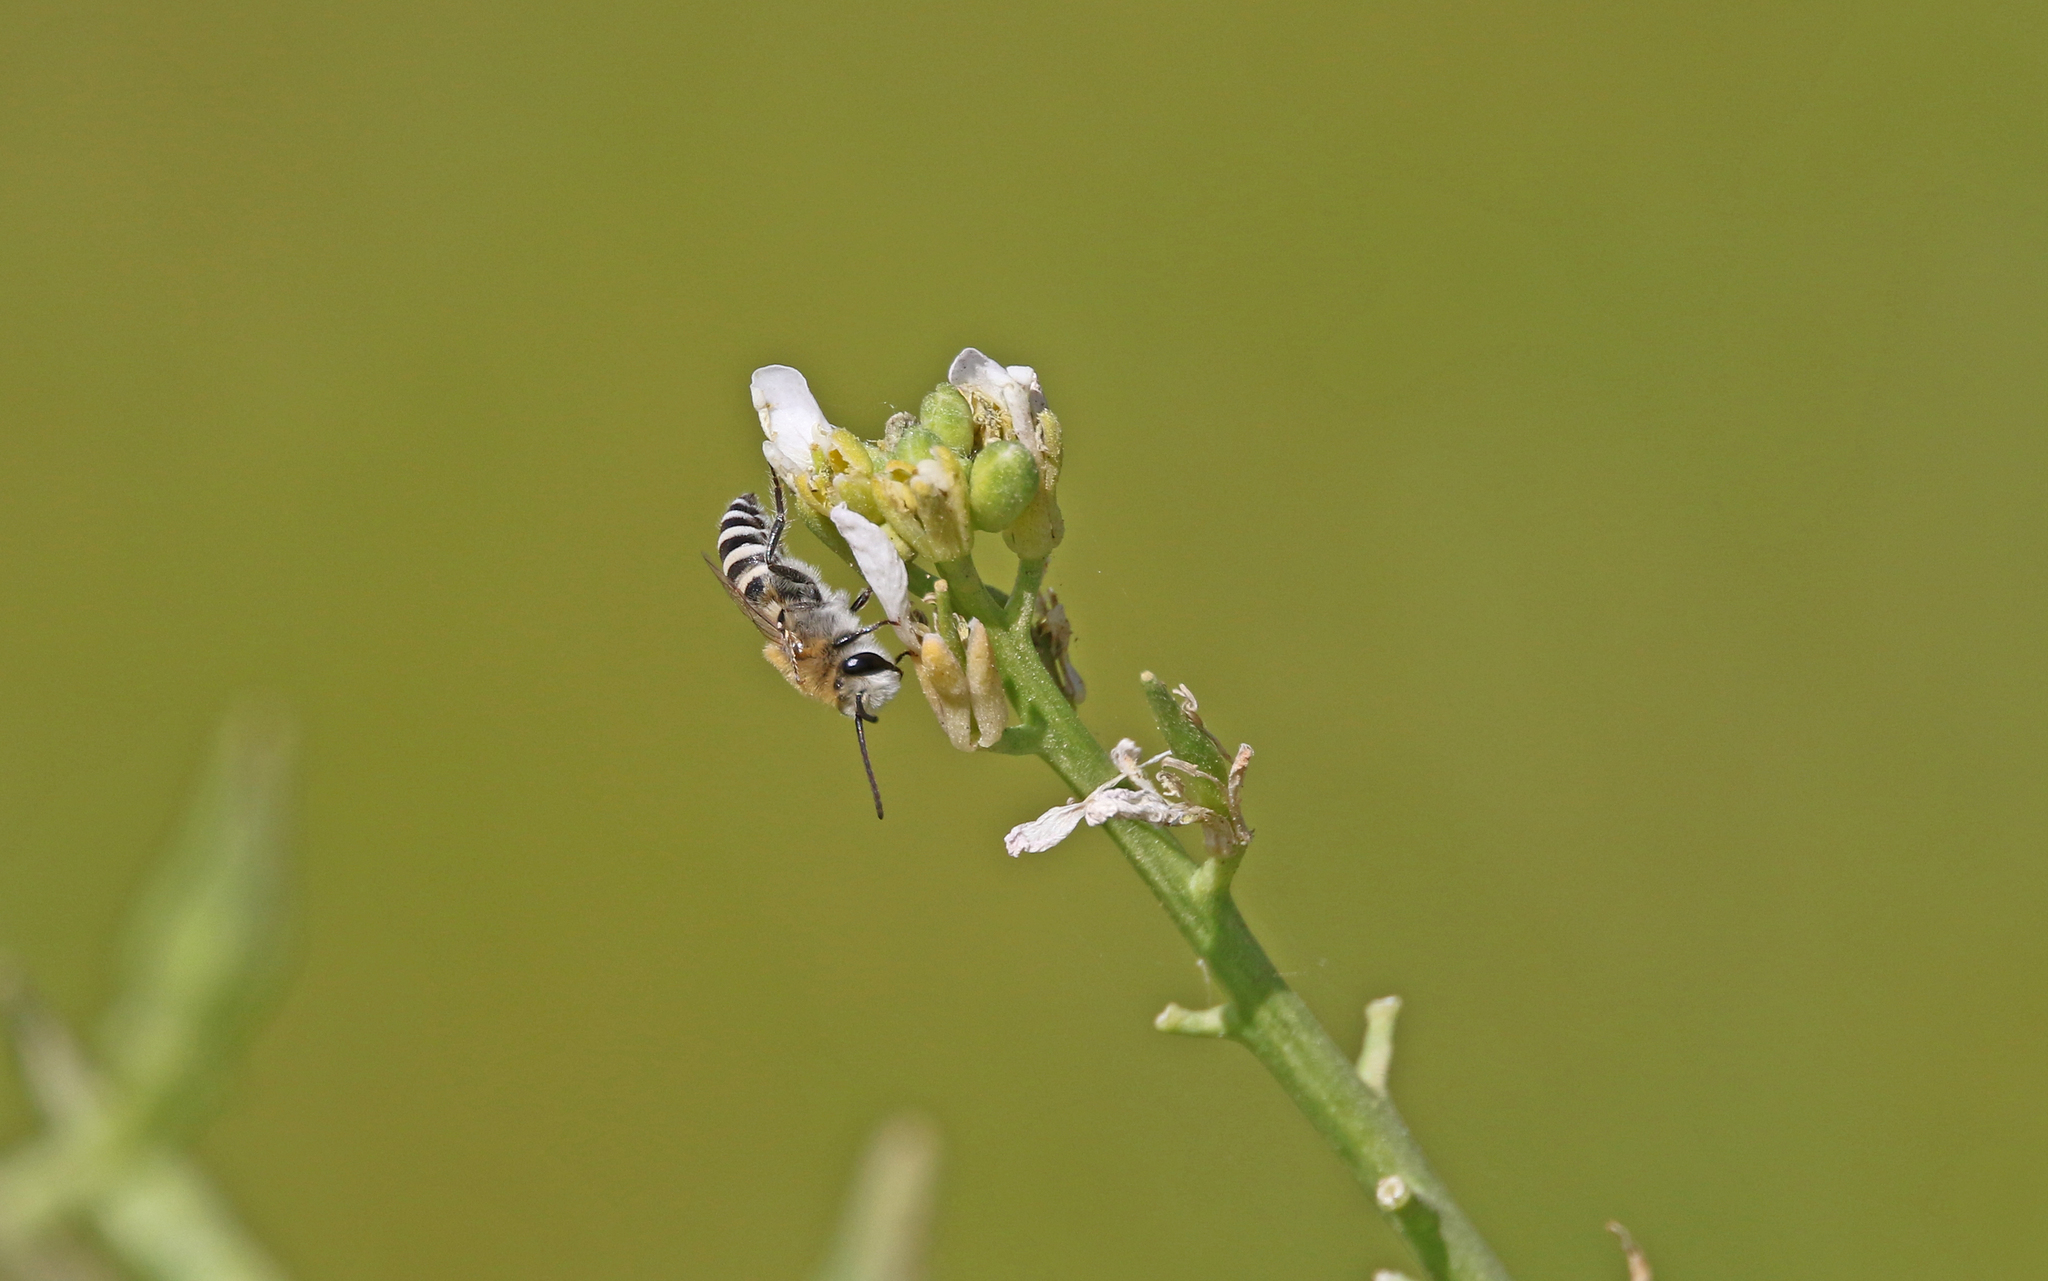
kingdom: Animalia
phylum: Arthropoda
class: Insecta
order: Hymenoptera
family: Colletidae
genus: Colletes
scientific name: Colletes perezi
